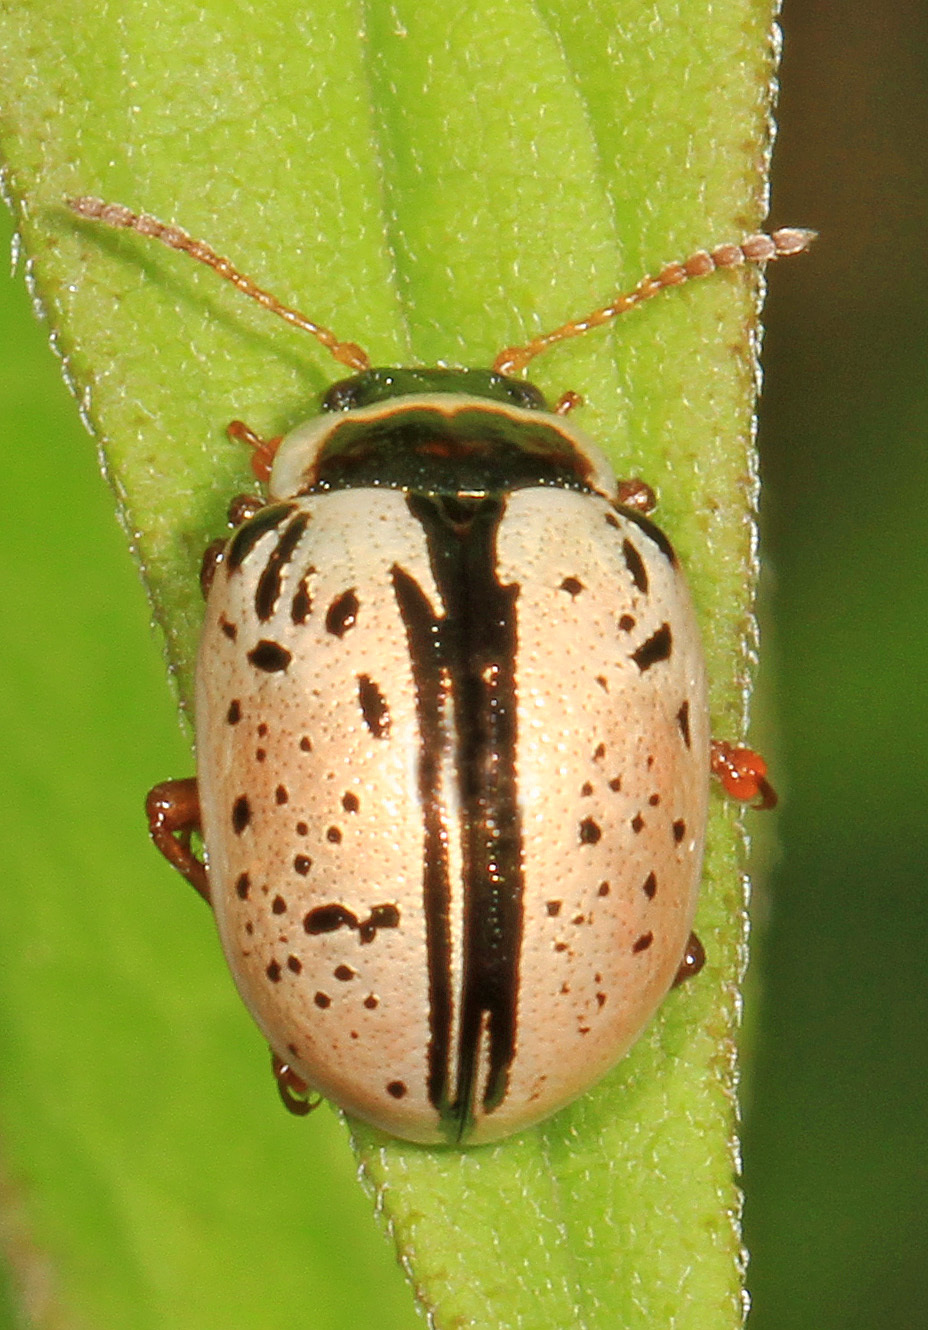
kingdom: Animalia
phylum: Arthropoda
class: Insecta
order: Coleoptera
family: Chrysomelidae
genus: Calligrapha
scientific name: Calligrapha multipunctata
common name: Common willow calligrapher beetle
